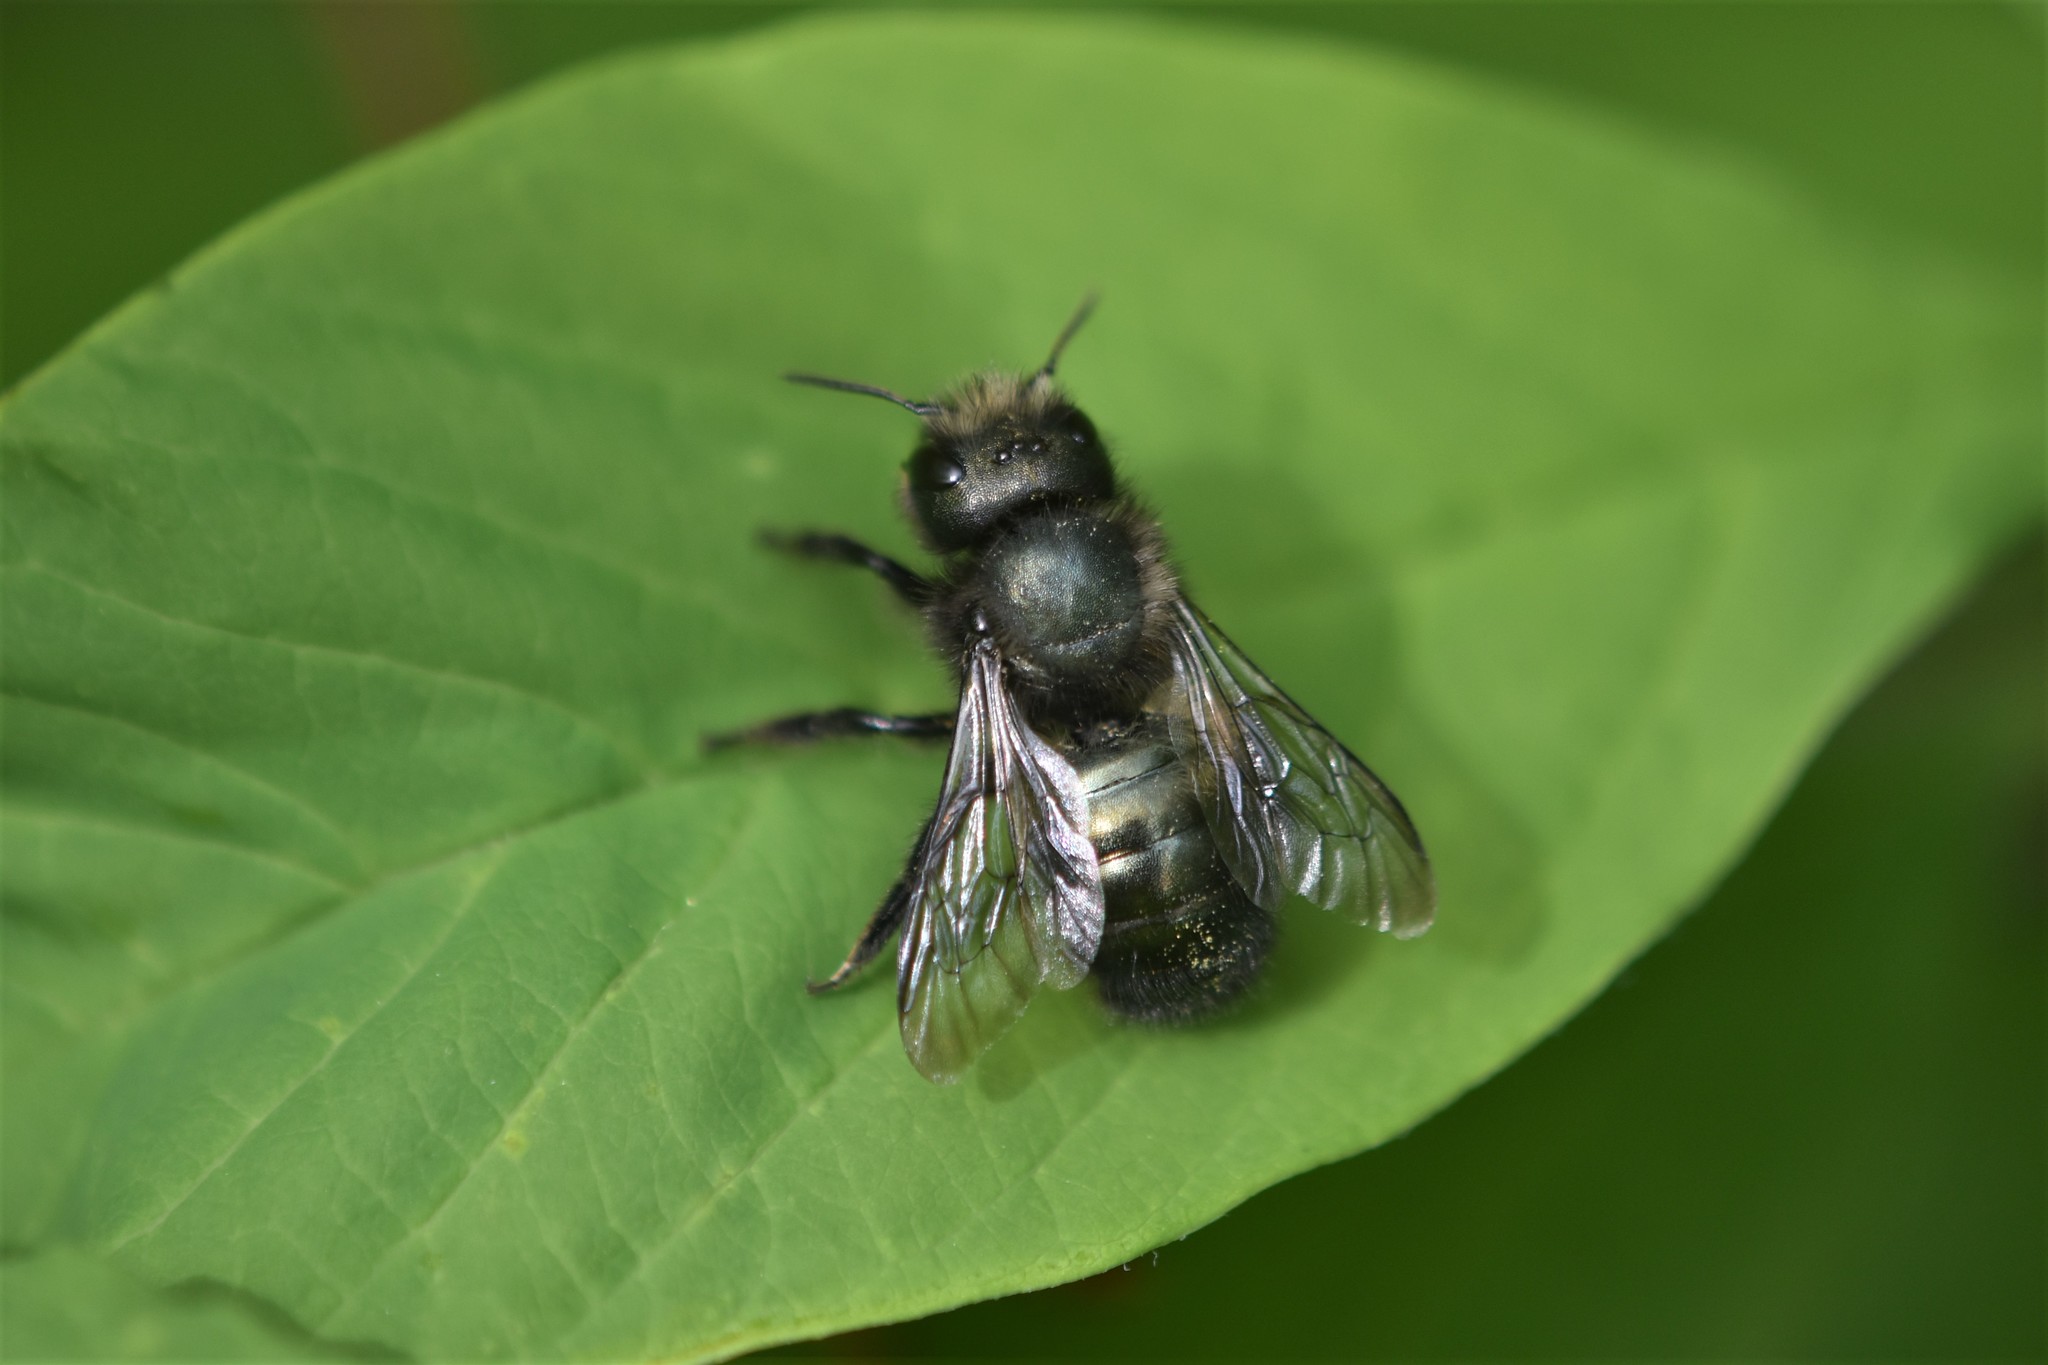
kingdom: Animalia
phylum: Arthropoda
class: Insecta
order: Hymenoptera
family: Megachilidae
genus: Osmia
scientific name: Osmia lignaria
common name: Blue orchard bee
